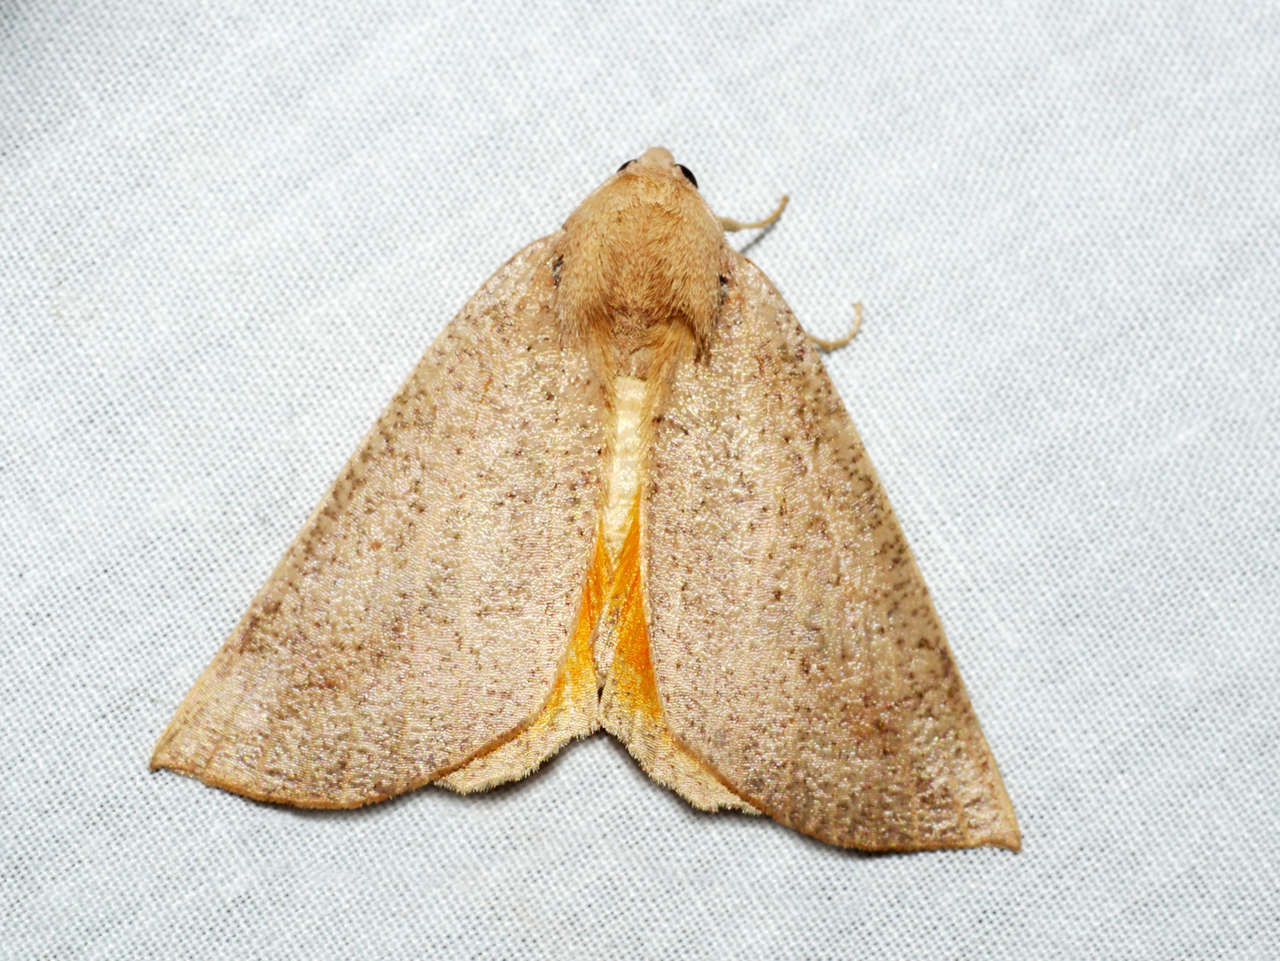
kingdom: Animalia
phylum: Arthropoda
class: Insecta
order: Lepidoptera
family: Geometridae
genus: Mnesampela
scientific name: Mnesampela heliochrysa
